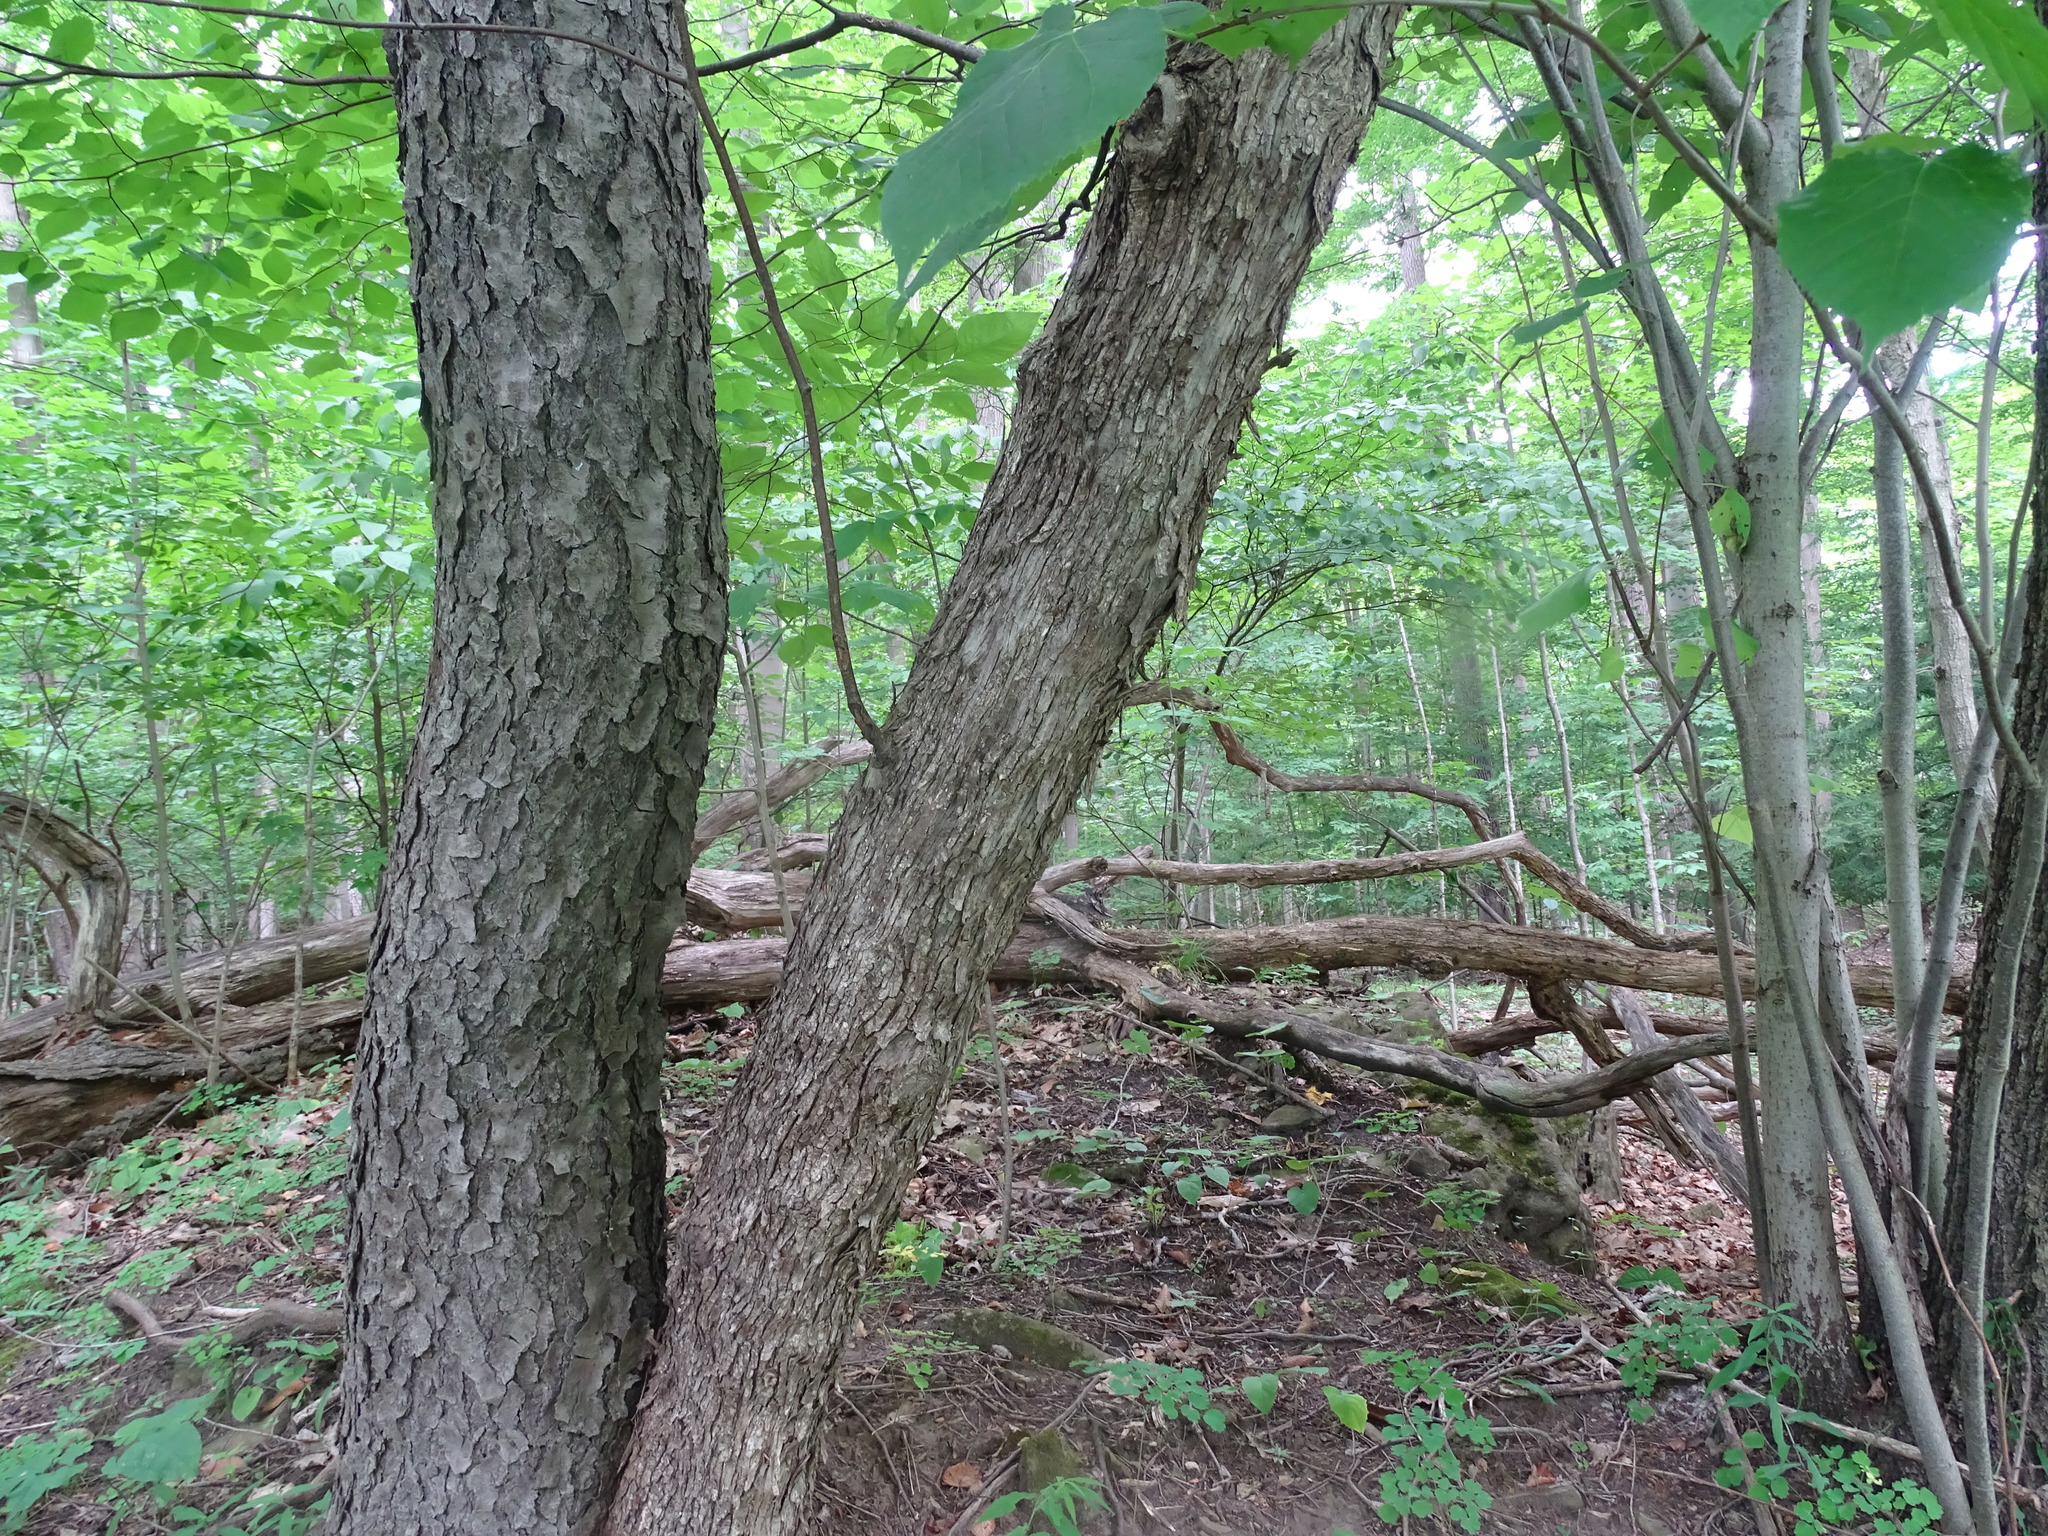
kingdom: Plantae
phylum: Tracheophyta
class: Magnoliopsida
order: Fagales
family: Betulaceae
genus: Ostrya
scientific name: Ostrya virginiana
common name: Ironwood
